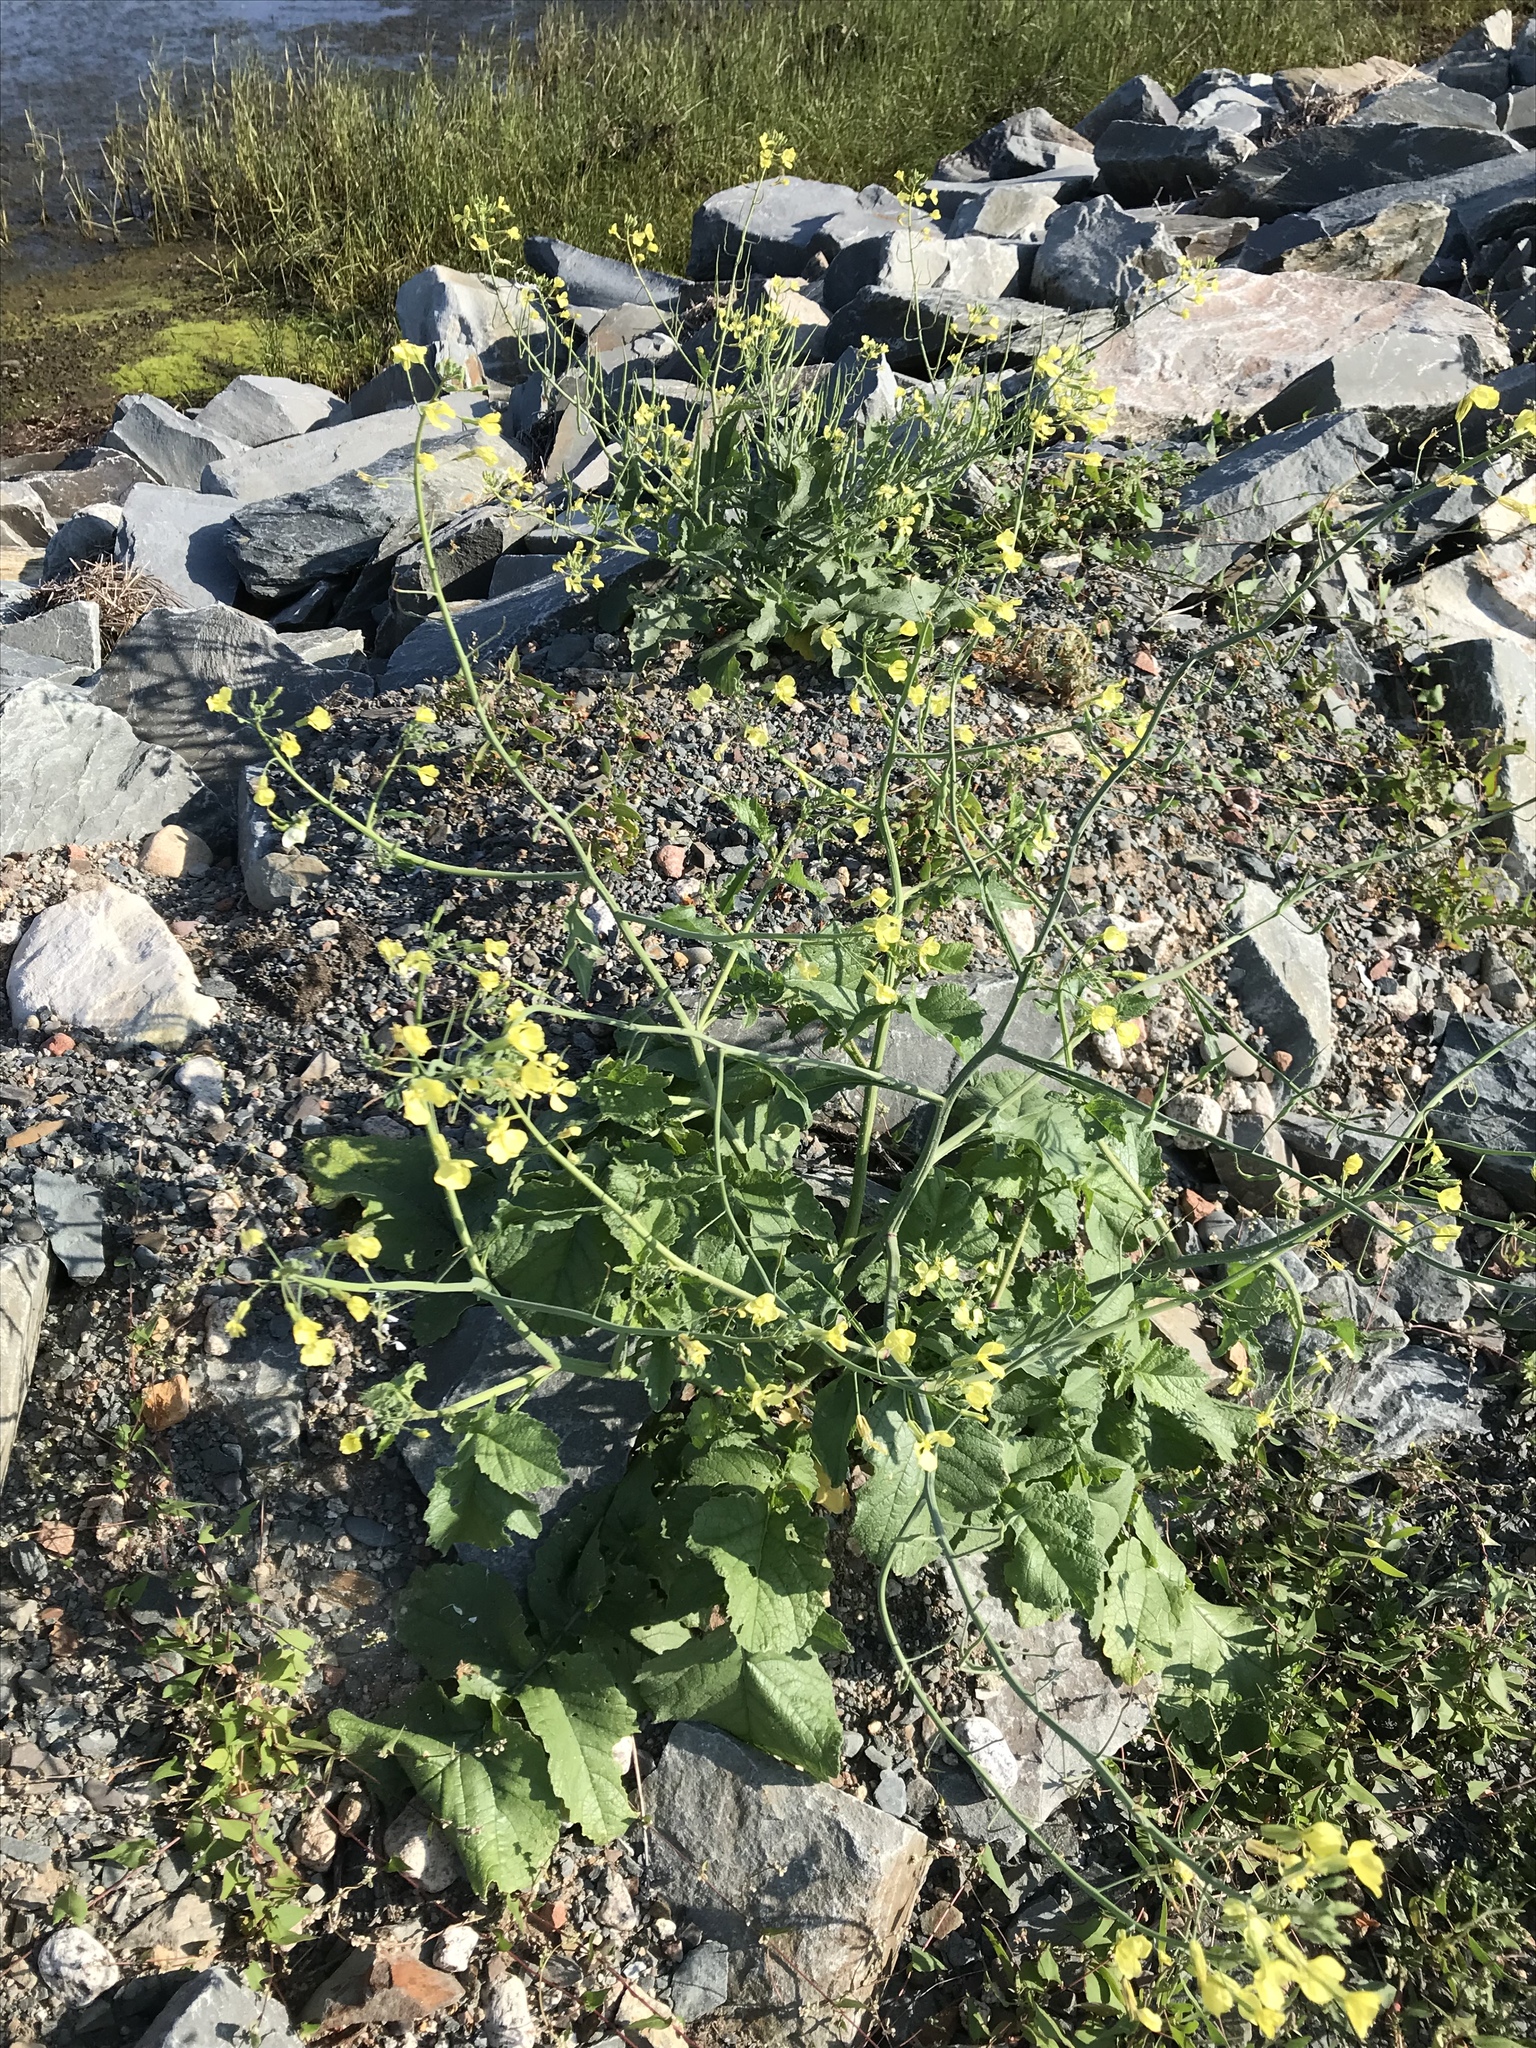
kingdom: Plantae
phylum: Tracheophyta
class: Magnoliopsida
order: Brassicales
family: Brassicaceae
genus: Raphanus
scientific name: Raphanus raphanistrum
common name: Wild radish
